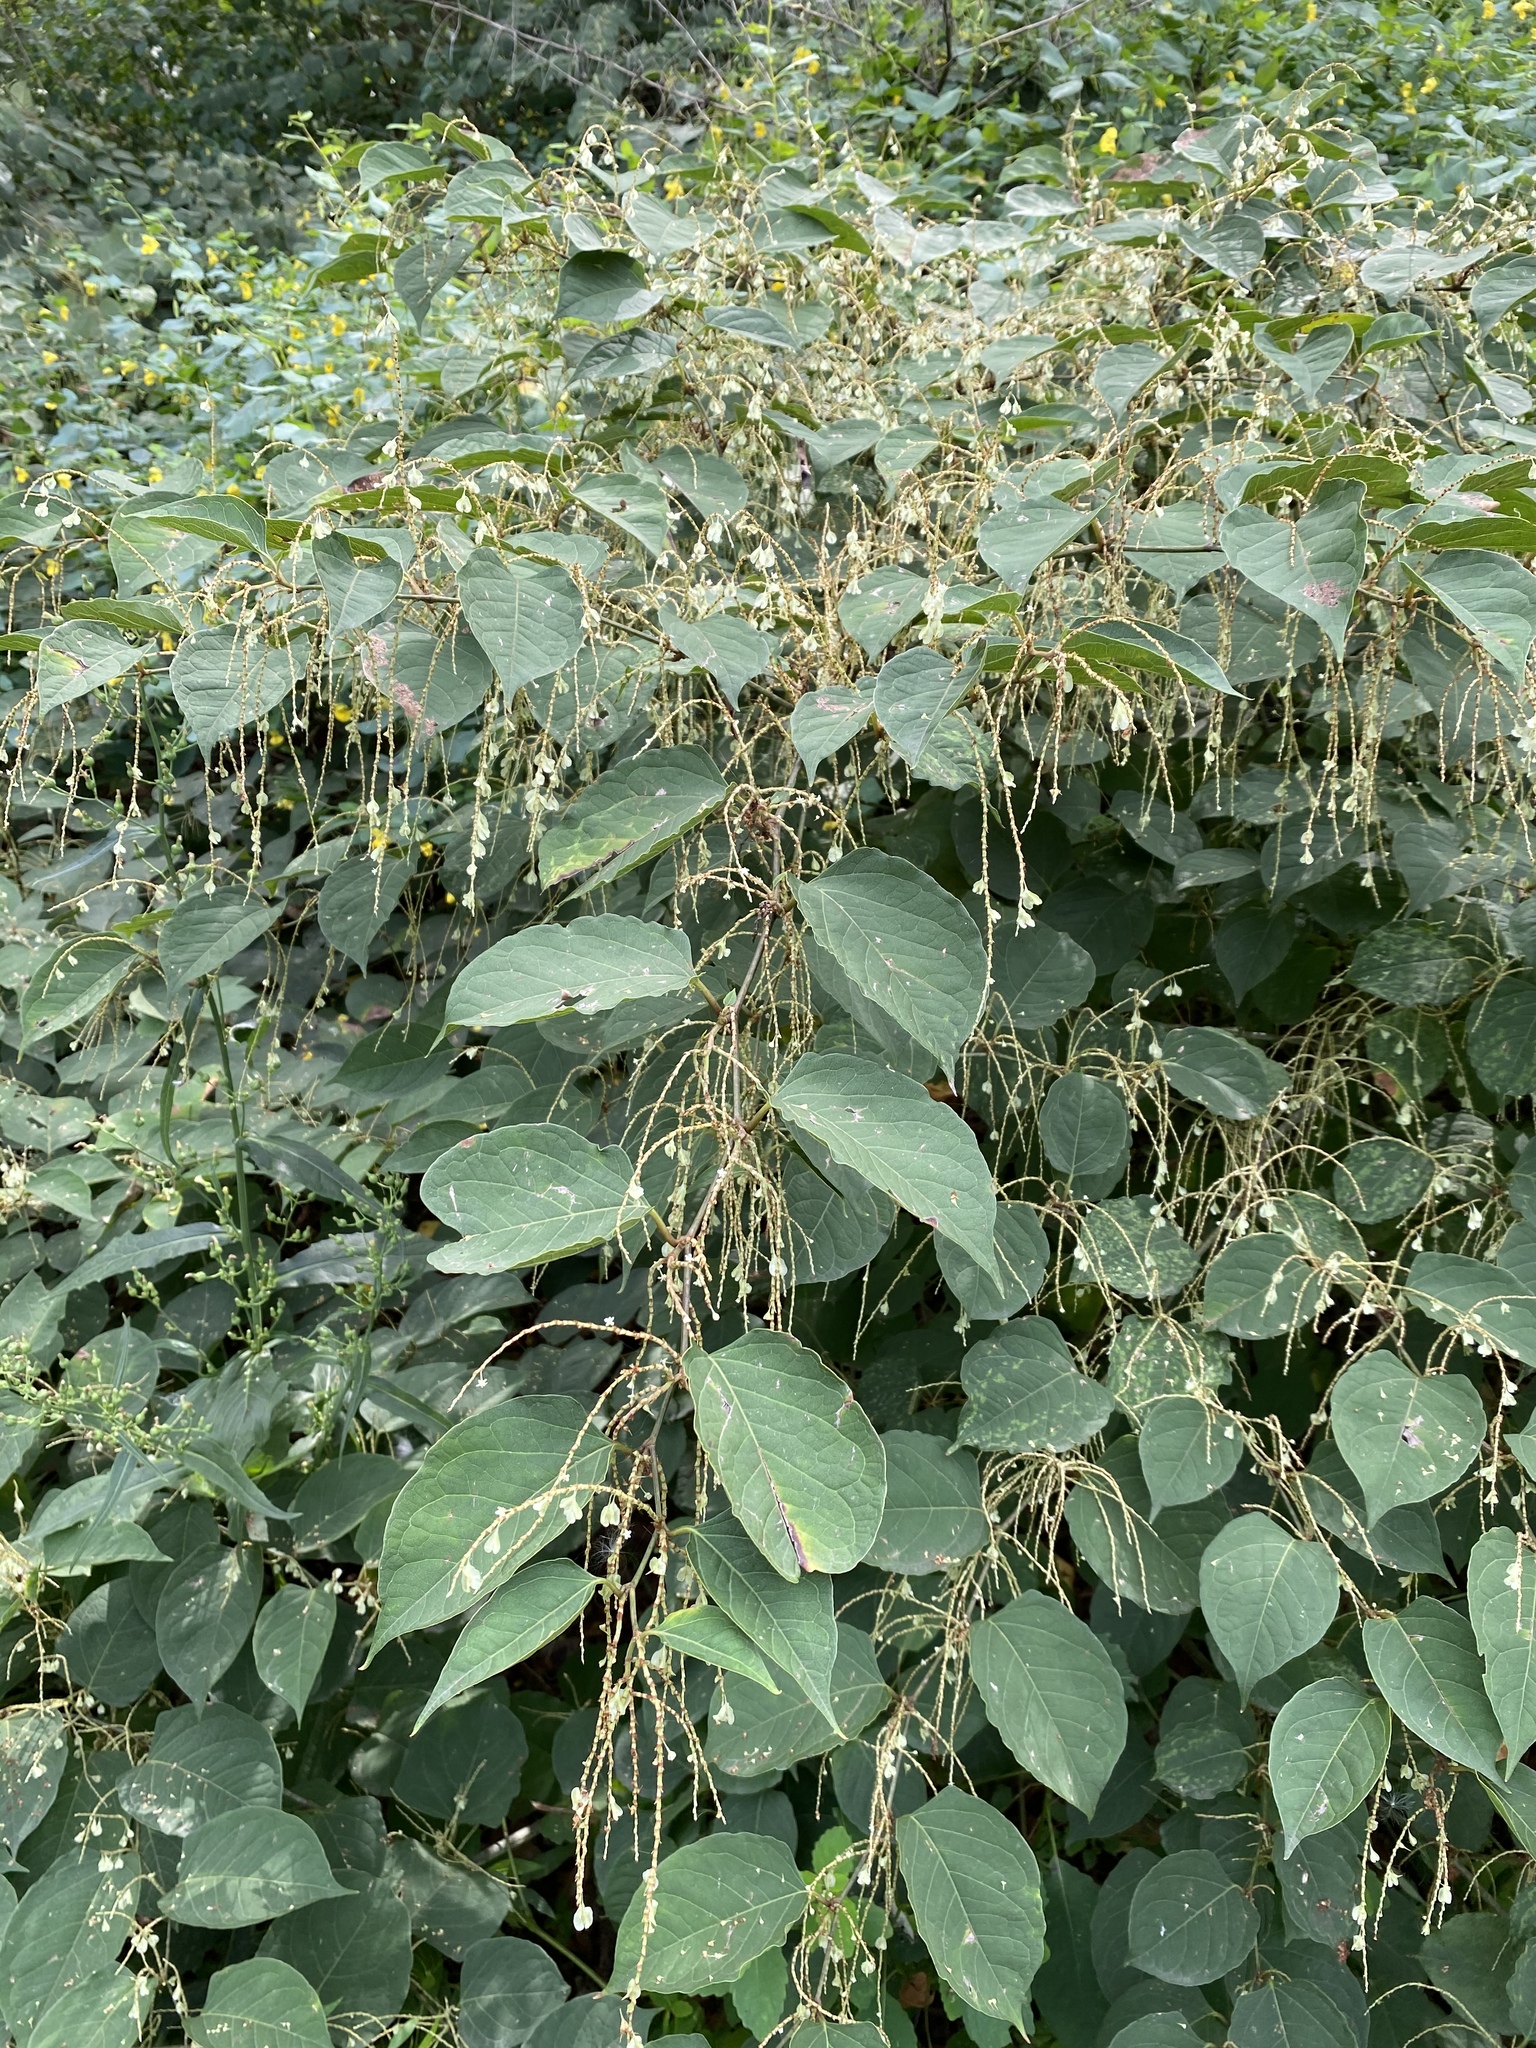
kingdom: Plantae
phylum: Tracheophyta
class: Magnoliopsida
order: Caryophyllales
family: Polygonaceae
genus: Reynoutria
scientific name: Reynoutria japonica
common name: Japanese knotweed
